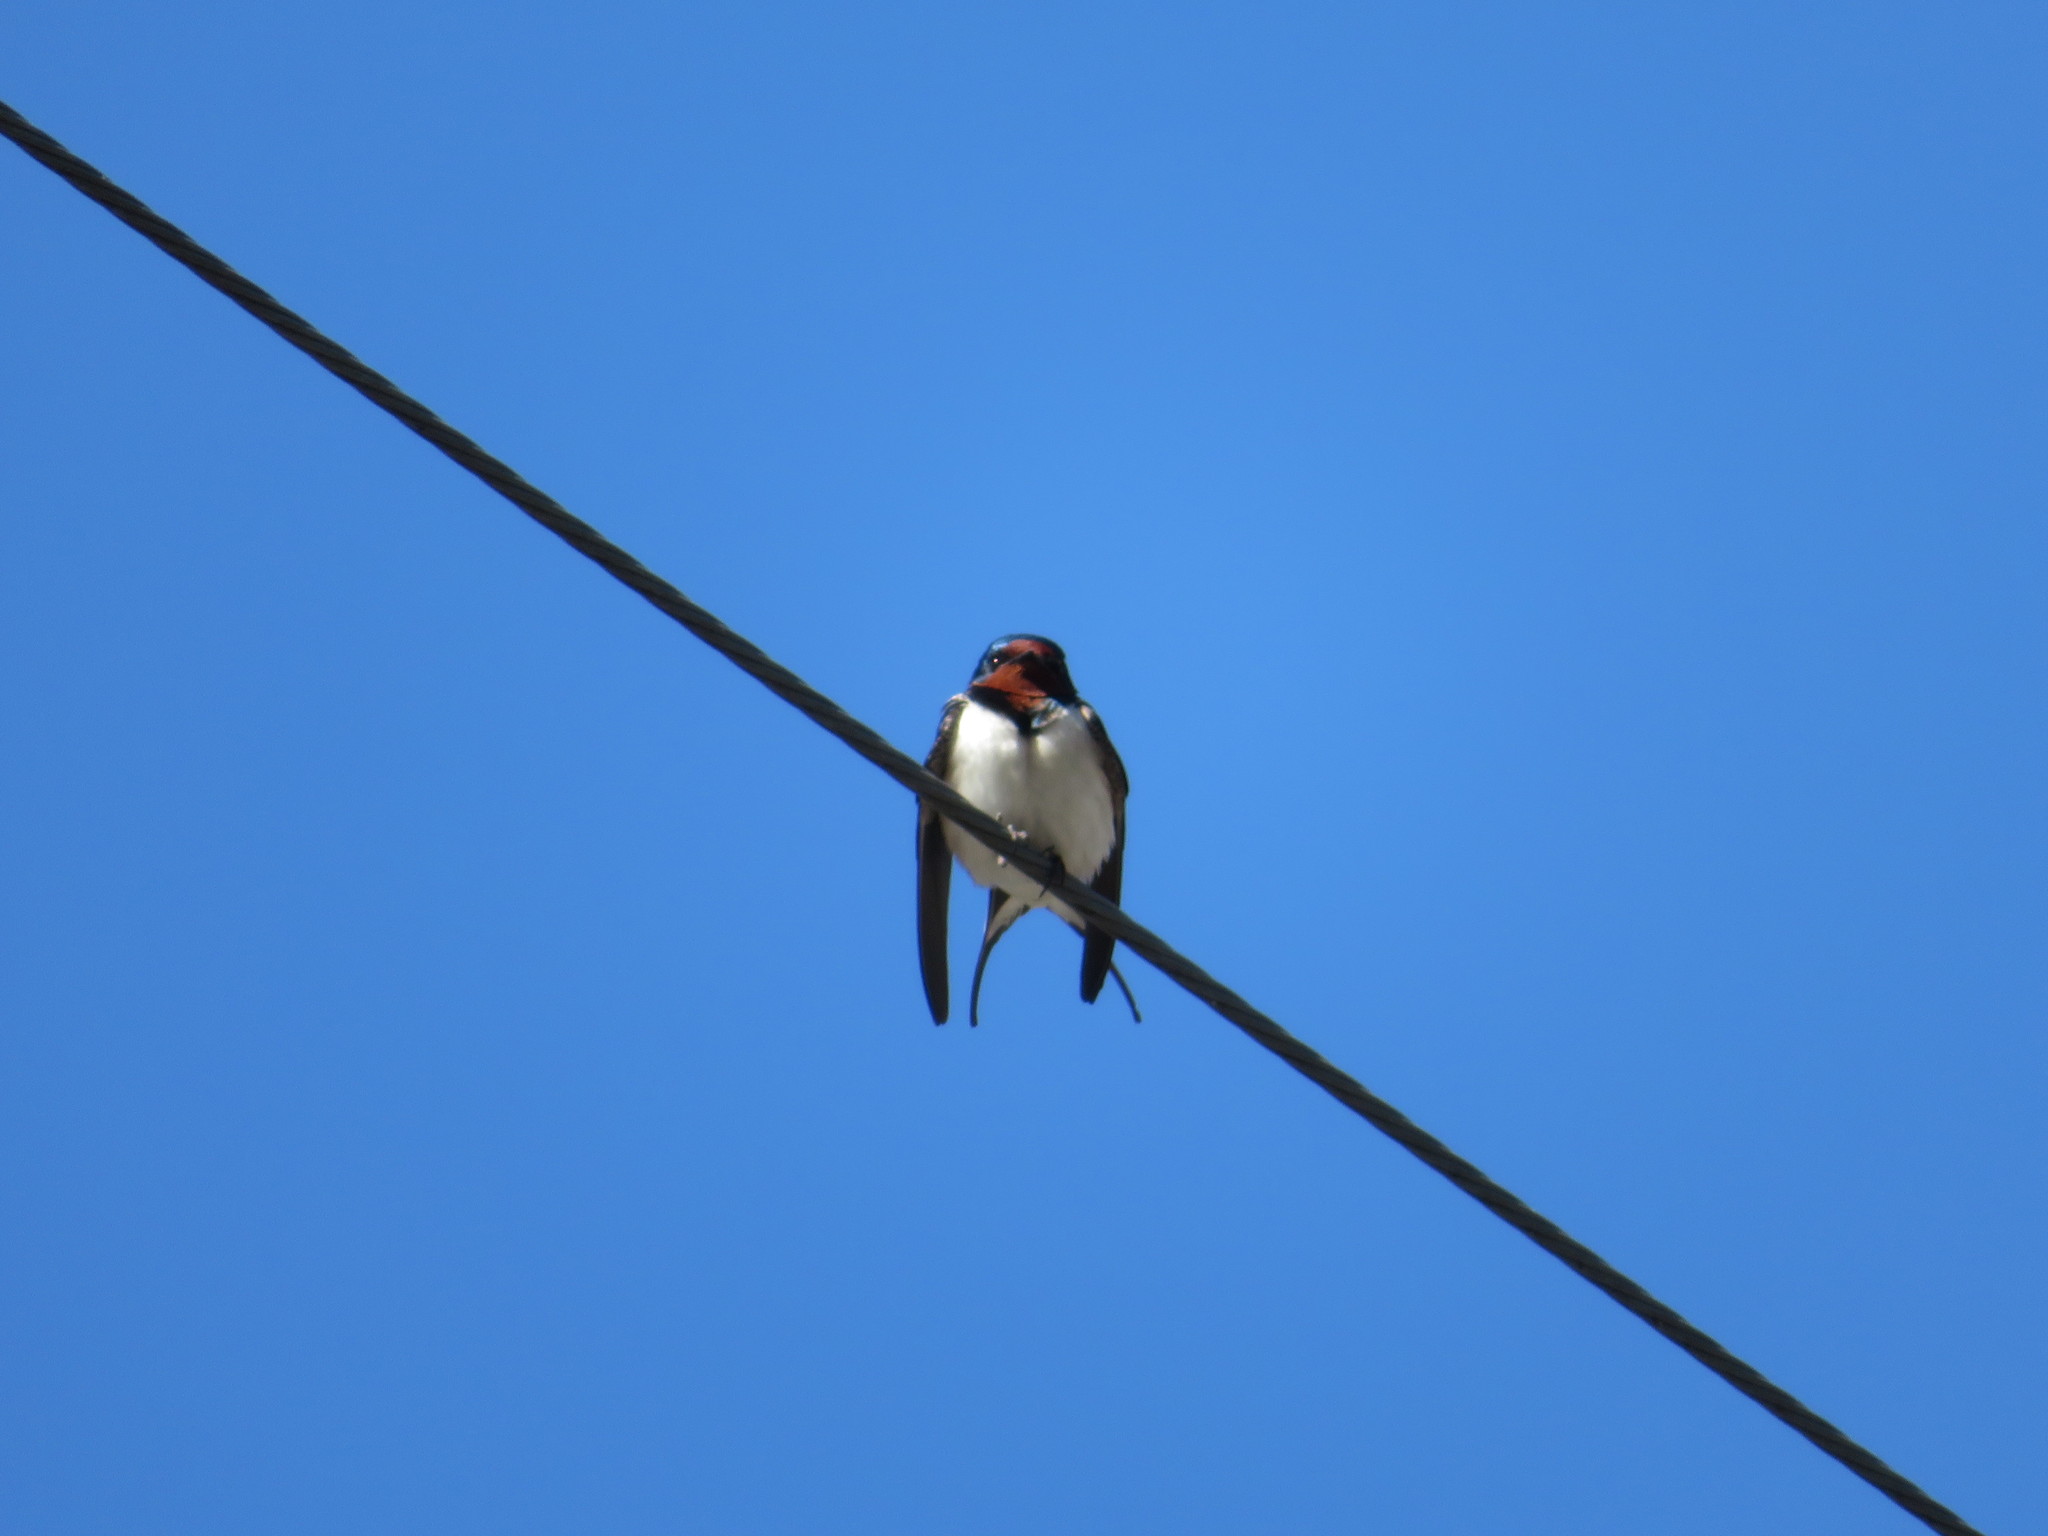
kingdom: Animalia
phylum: Chordata
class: Aves
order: Passeriformes
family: Hirundinidae
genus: Hirundo
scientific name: Hirundo rustica
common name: Barn swallow
